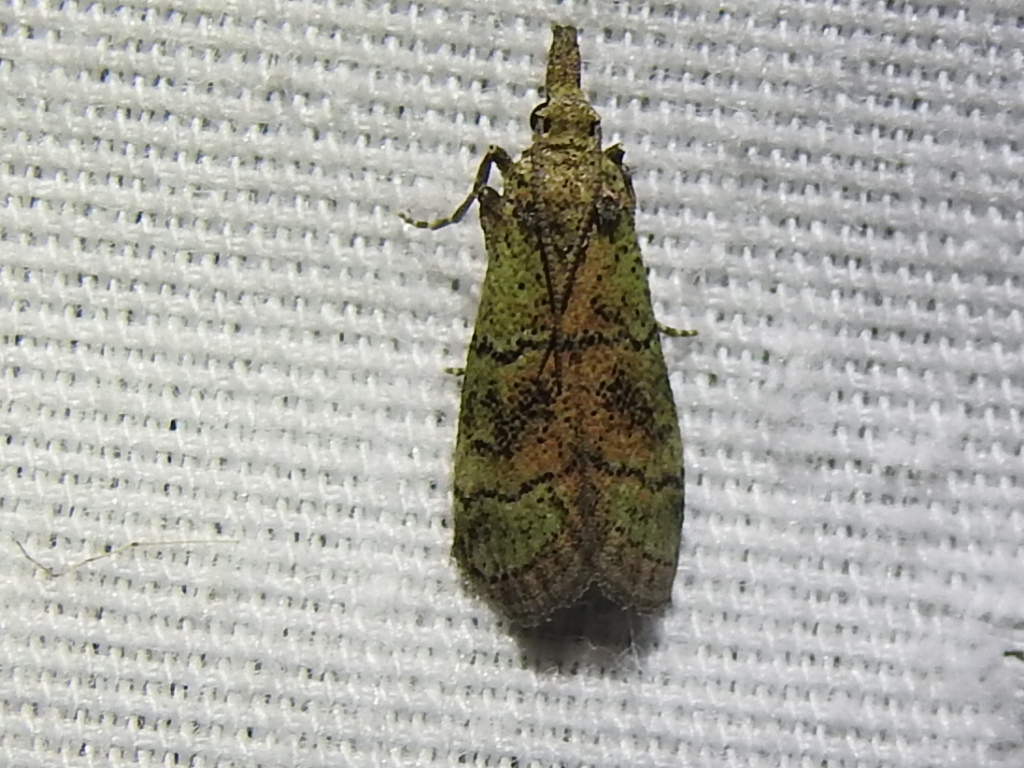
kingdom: Animalia
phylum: Arthropoda
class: Insecta
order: Lepidoptera
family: Pyralidae
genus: Cacotherapia
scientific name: Cacotherapia flexilinealis
